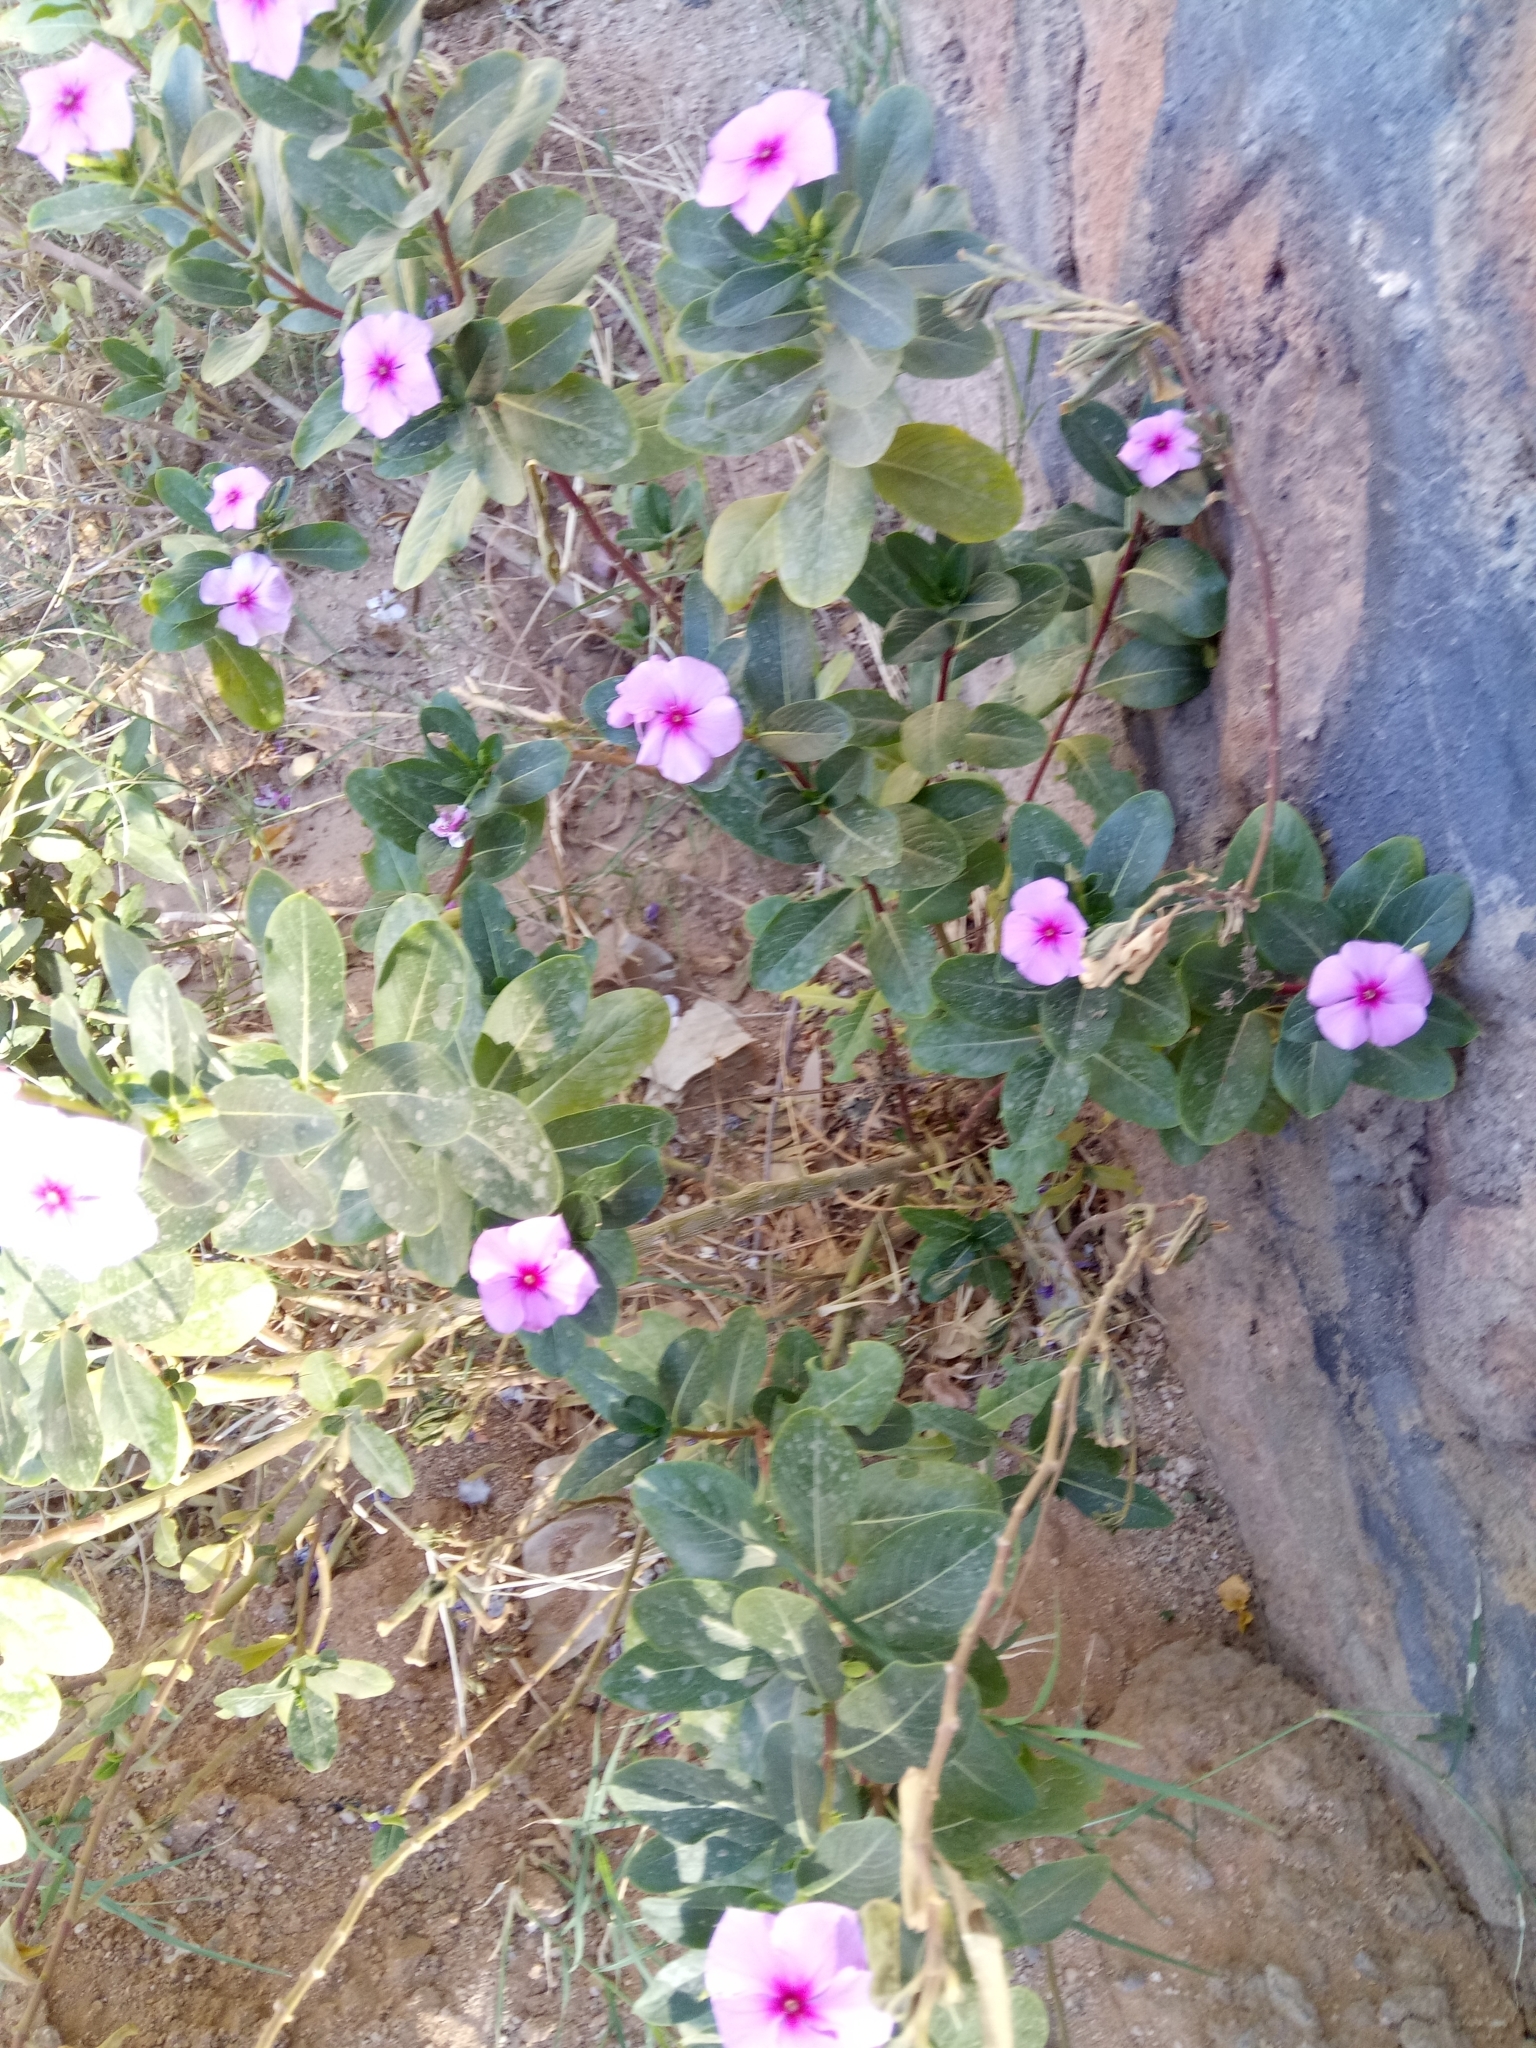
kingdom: Plantae
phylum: Tracheophyta
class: Magnoliopsida
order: Gentianales
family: Apocynaceae
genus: Catharanthus
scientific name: Catharanthus roseus
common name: Madagascar periwinkle
